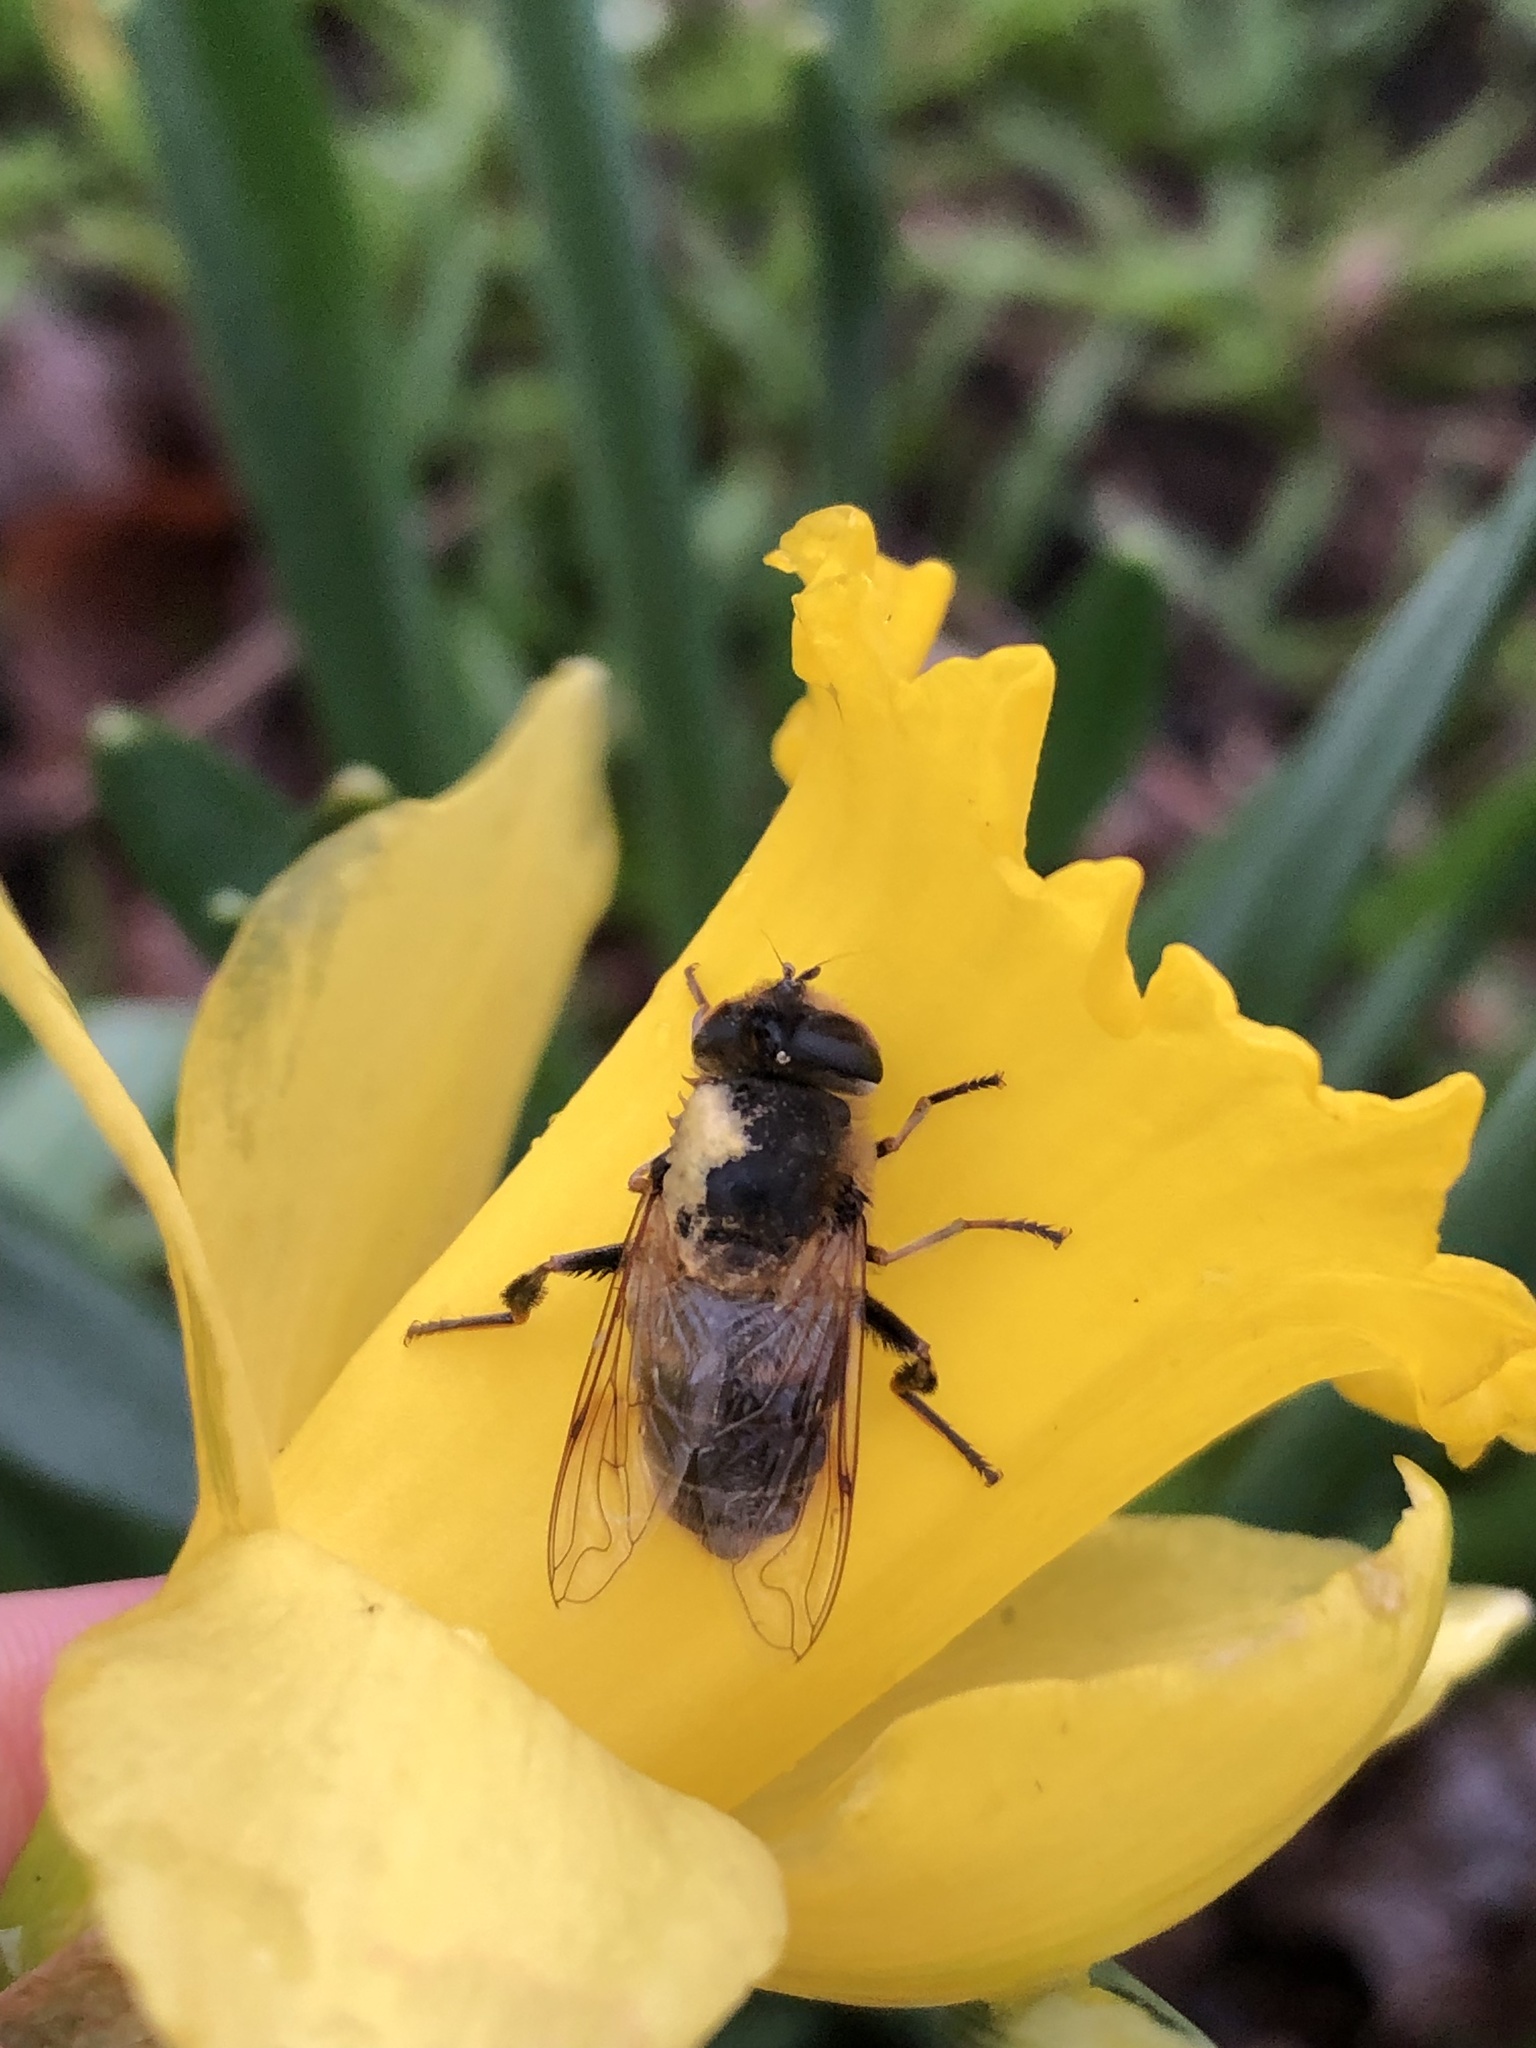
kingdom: Animalia
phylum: Arthropoda
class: Insecta
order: Diptera
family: Syrphidae
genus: Eristalis
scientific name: Eristalis tenax
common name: Drone fly
